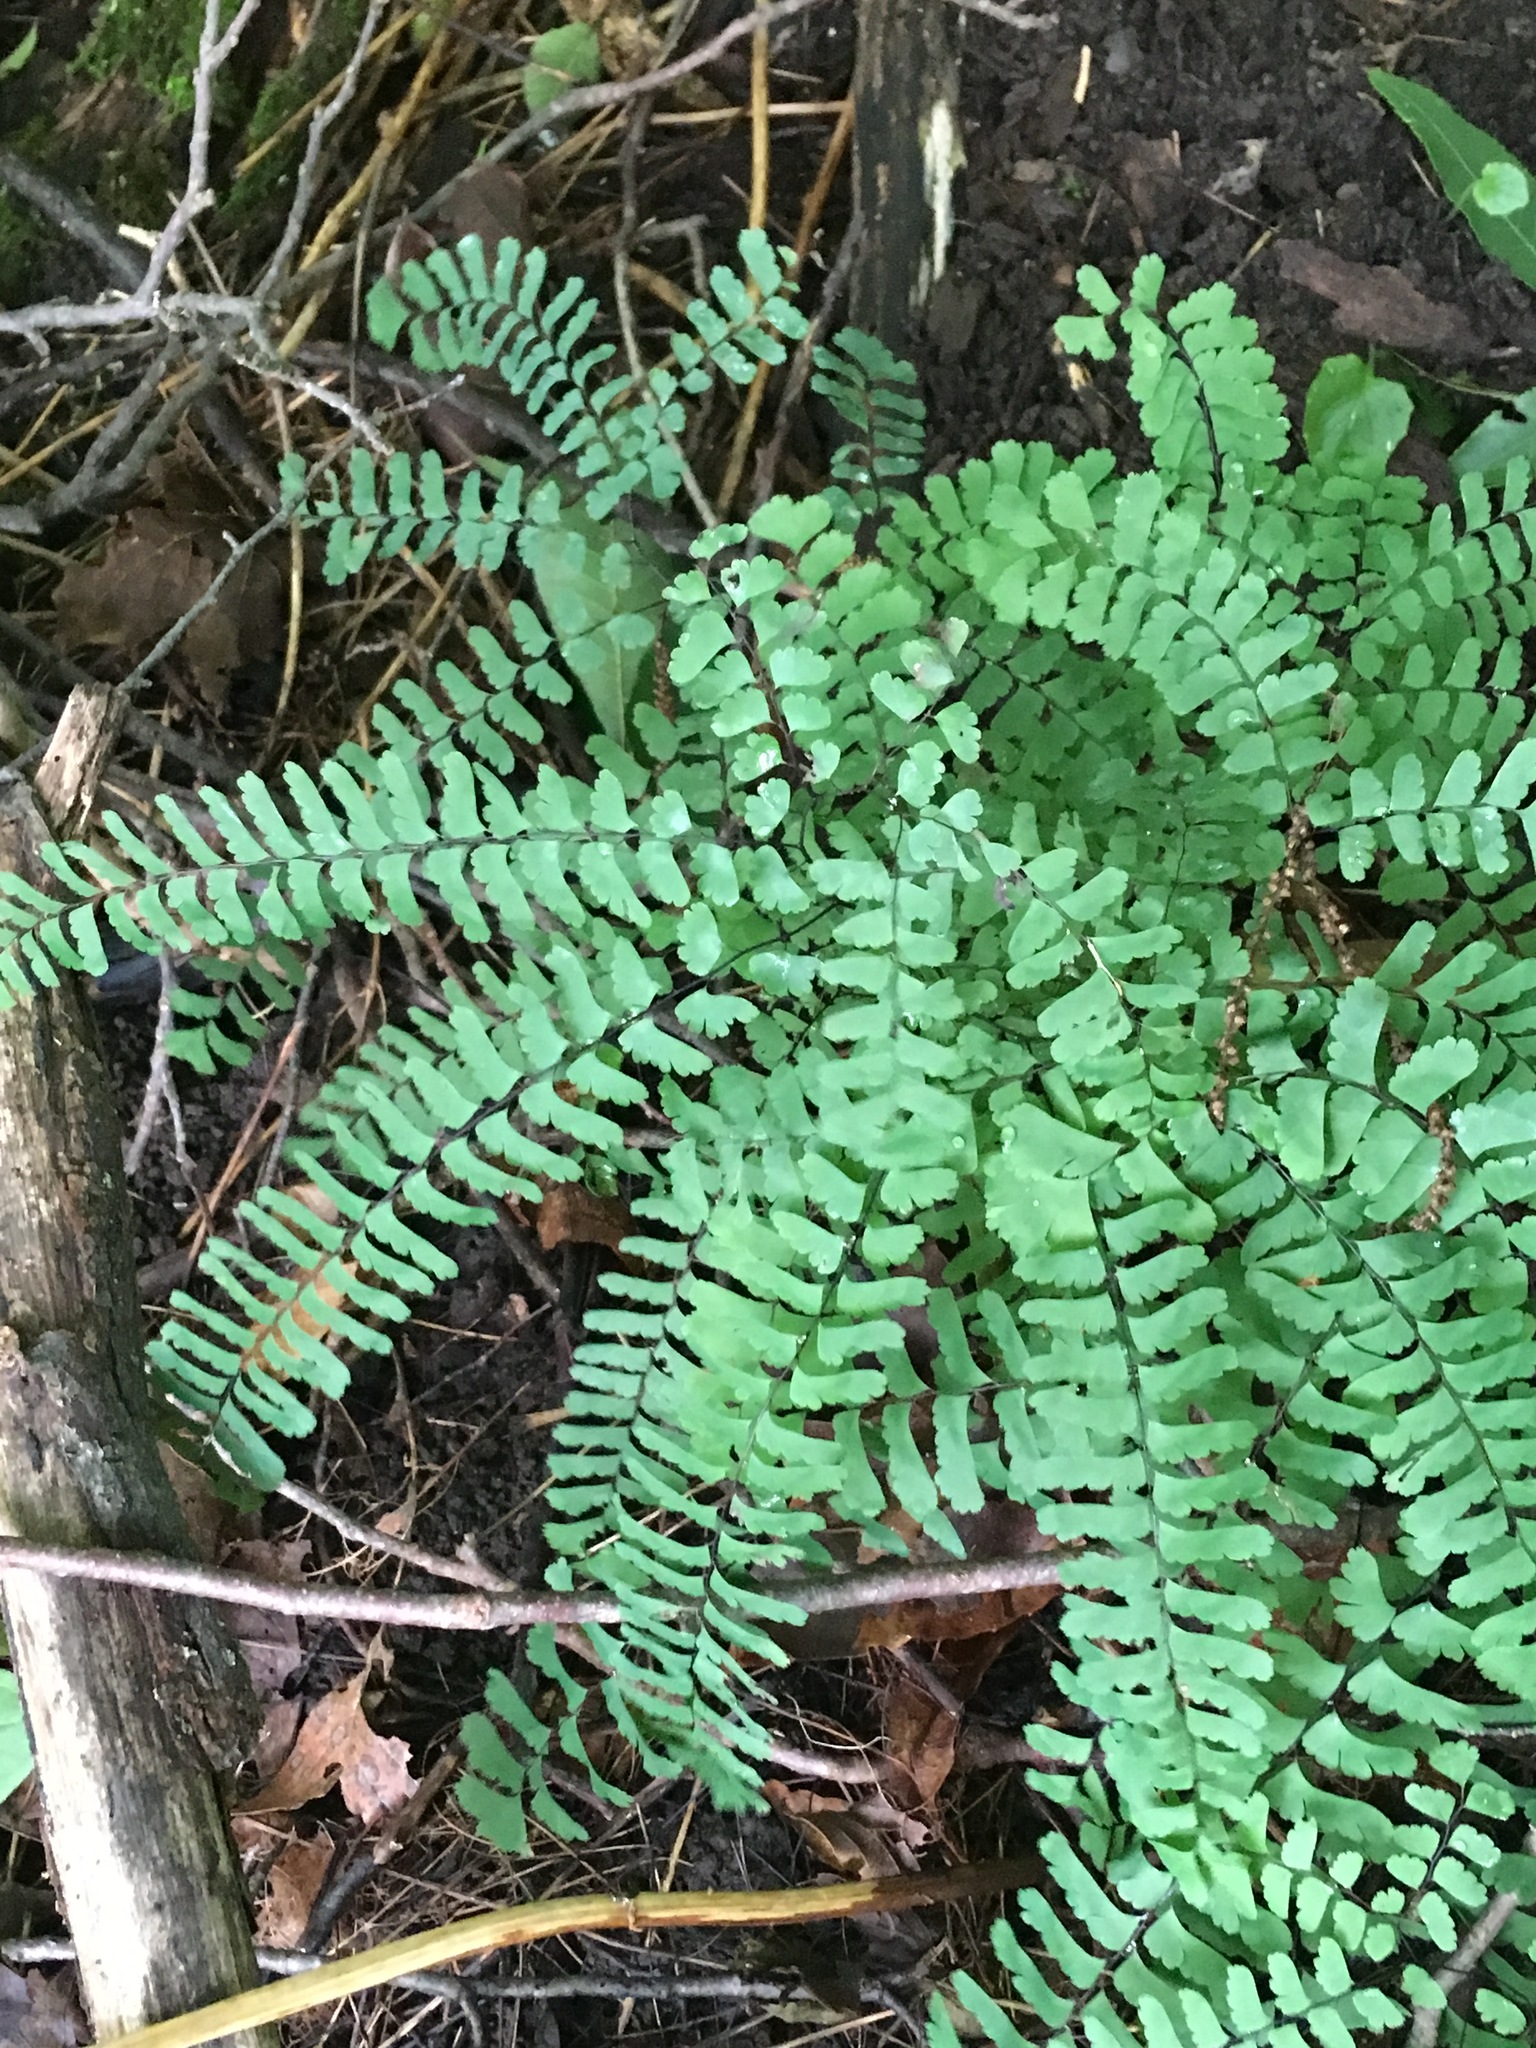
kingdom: Plantae
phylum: Tracheophyta
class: Polypodiopsida
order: Polypodiales
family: Pteridaceae
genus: Adiantum
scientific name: Adiantum pedatum
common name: Five-finger fern
